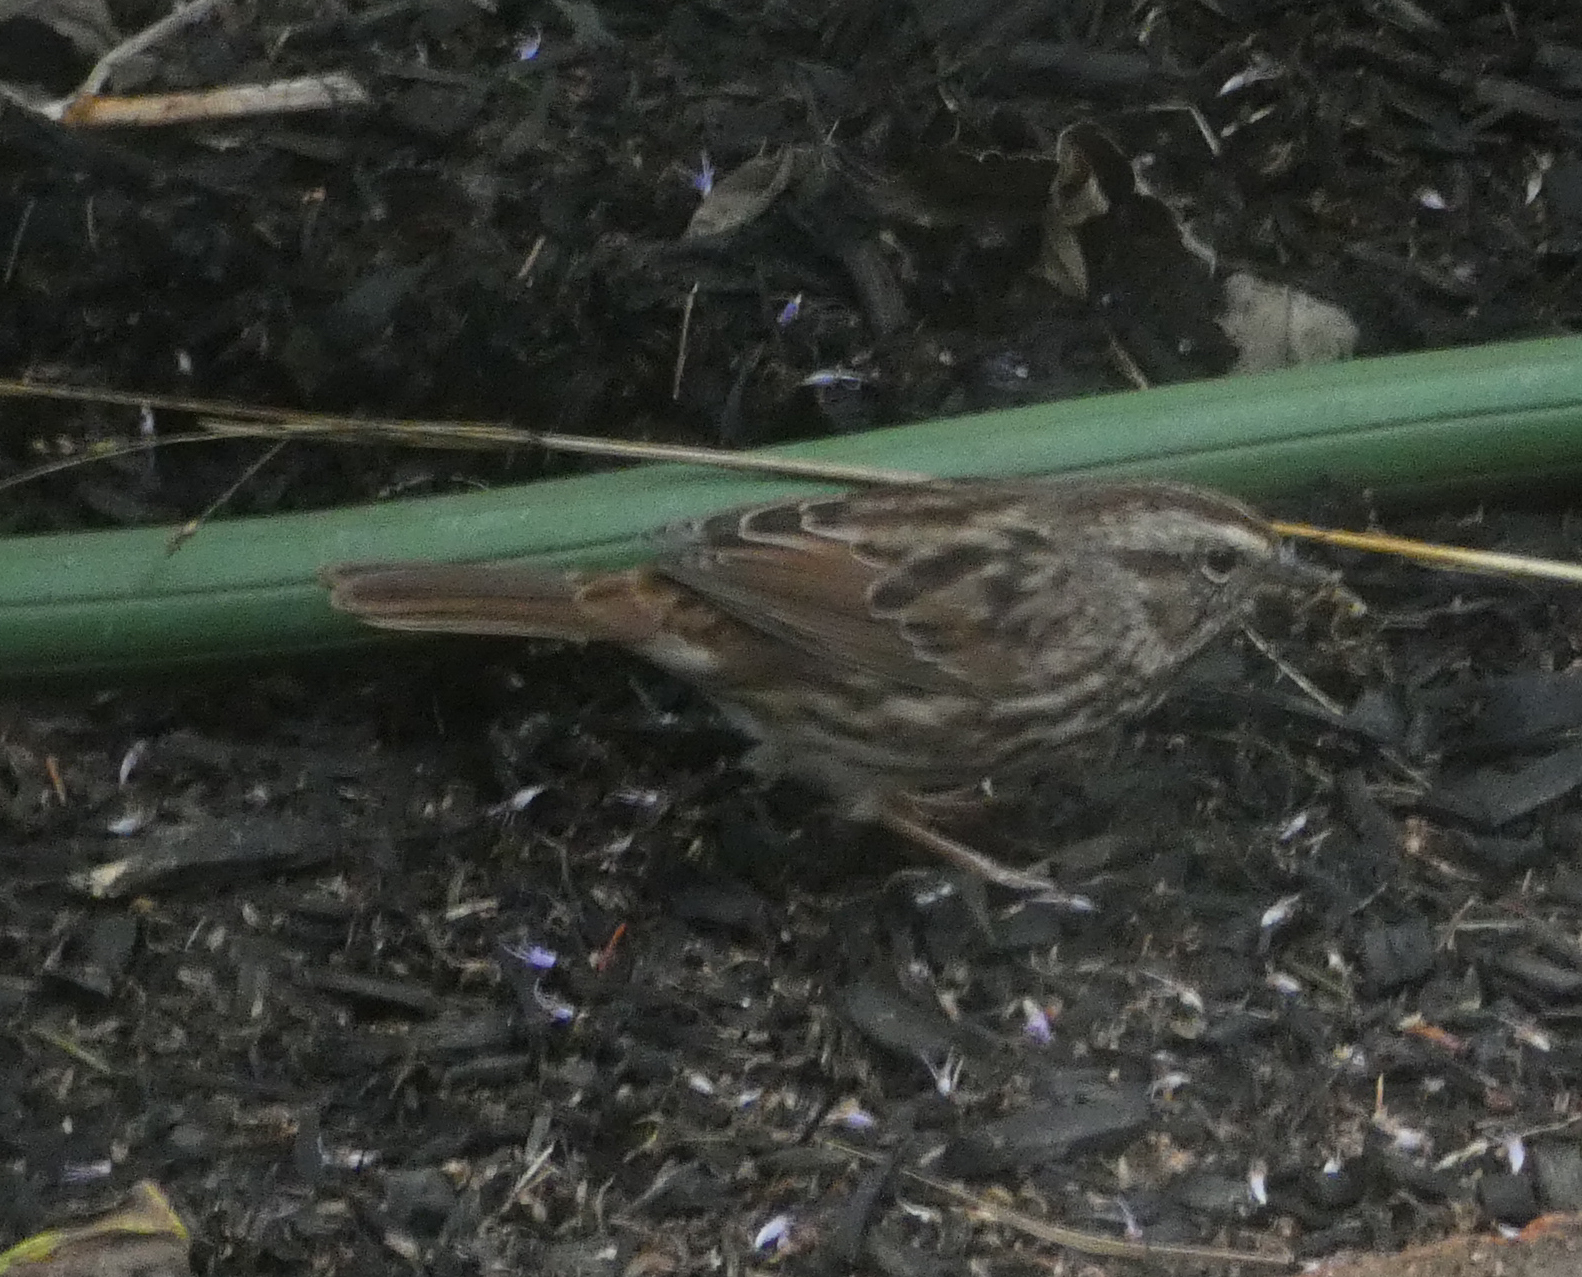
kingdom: Animalia
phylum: Chordata
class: Aves
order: Passeriformes
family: Passerellidae
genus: Melospiza
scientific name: Melospiza melodia
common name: Song sparrow
